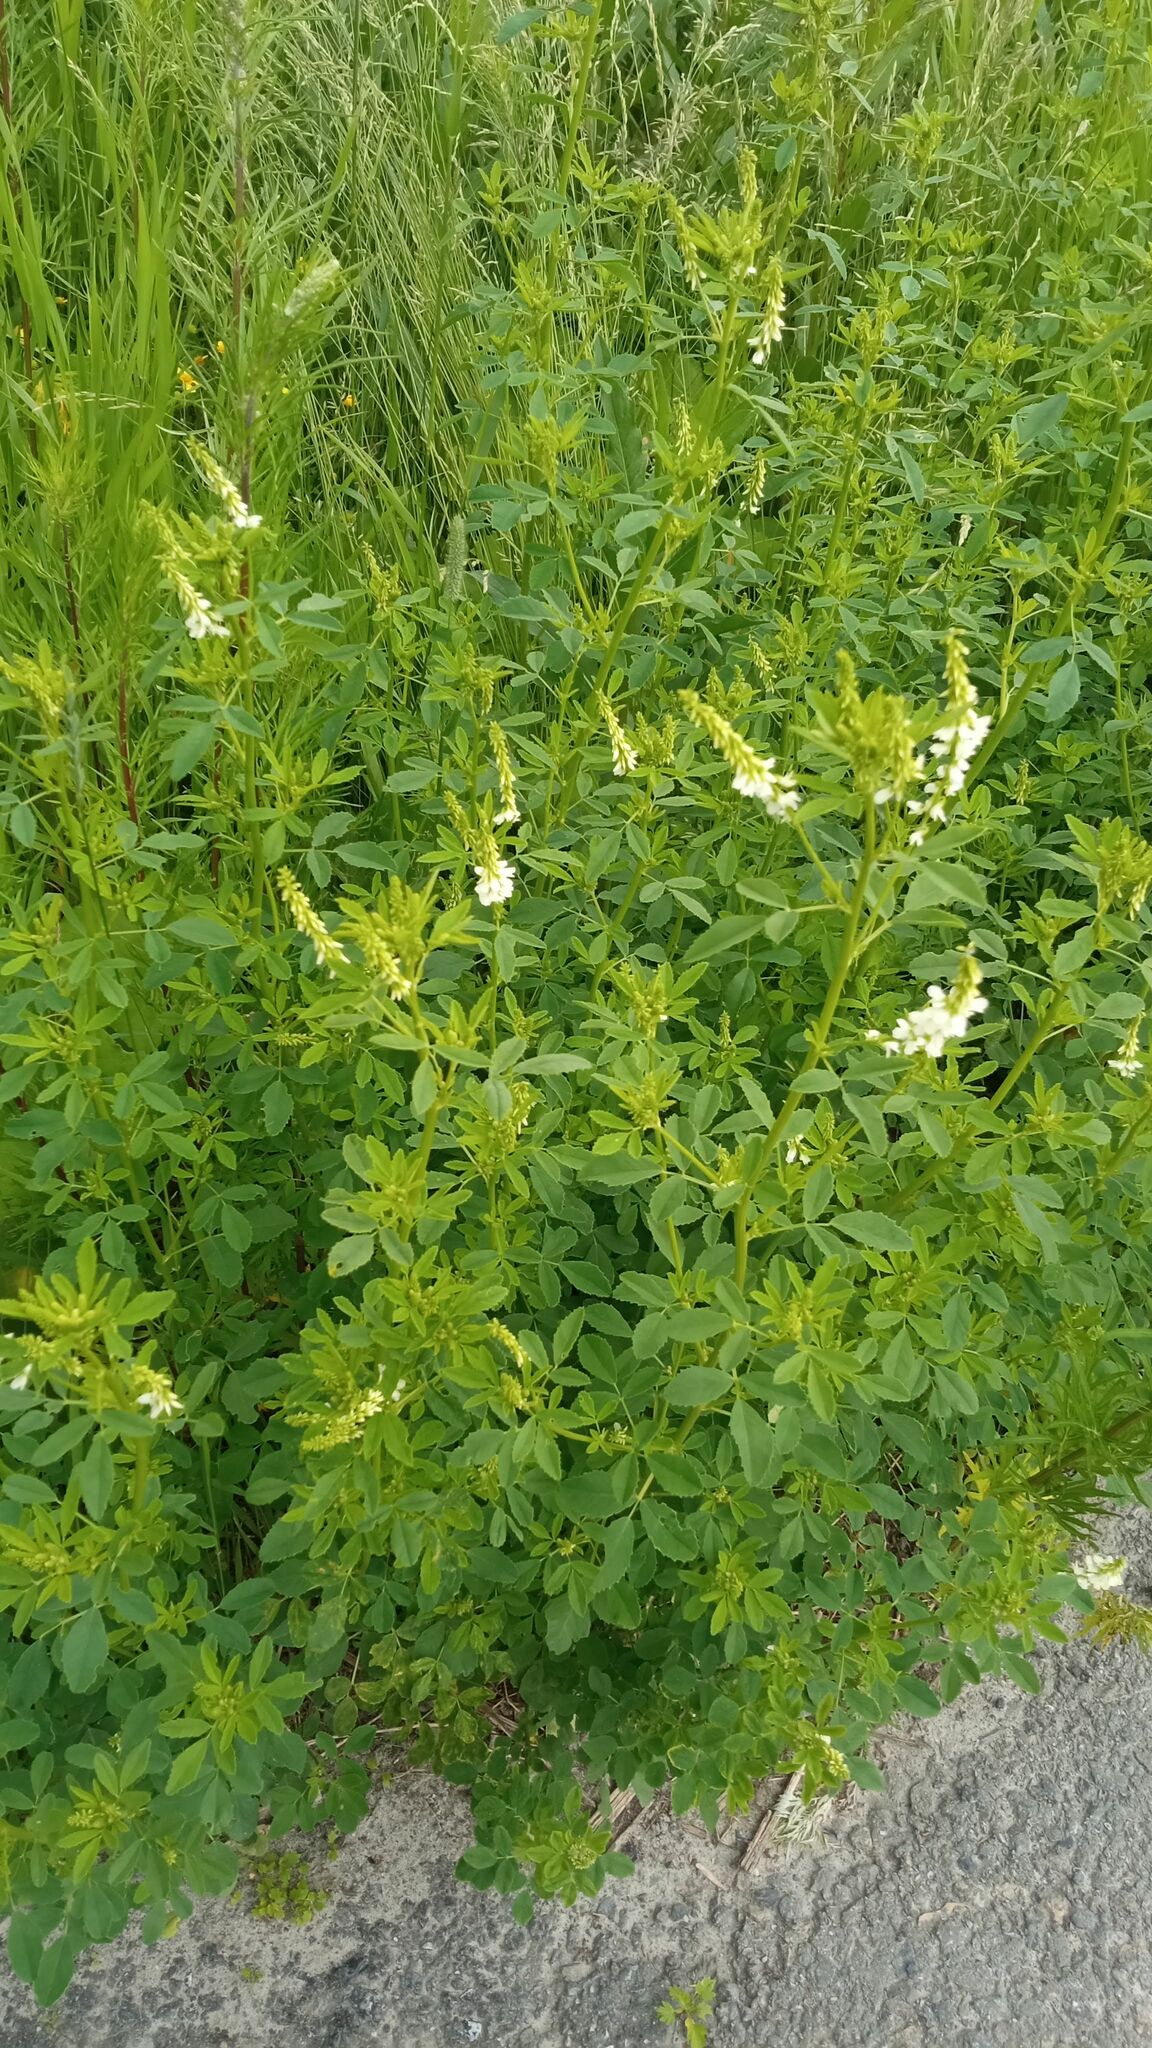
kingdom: Plantae
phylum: Tracheophyta
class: Magnoliopsida
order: Fabales
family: Fabaceae
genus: Melilotus
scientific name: Melilotus albus
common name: White melilot
